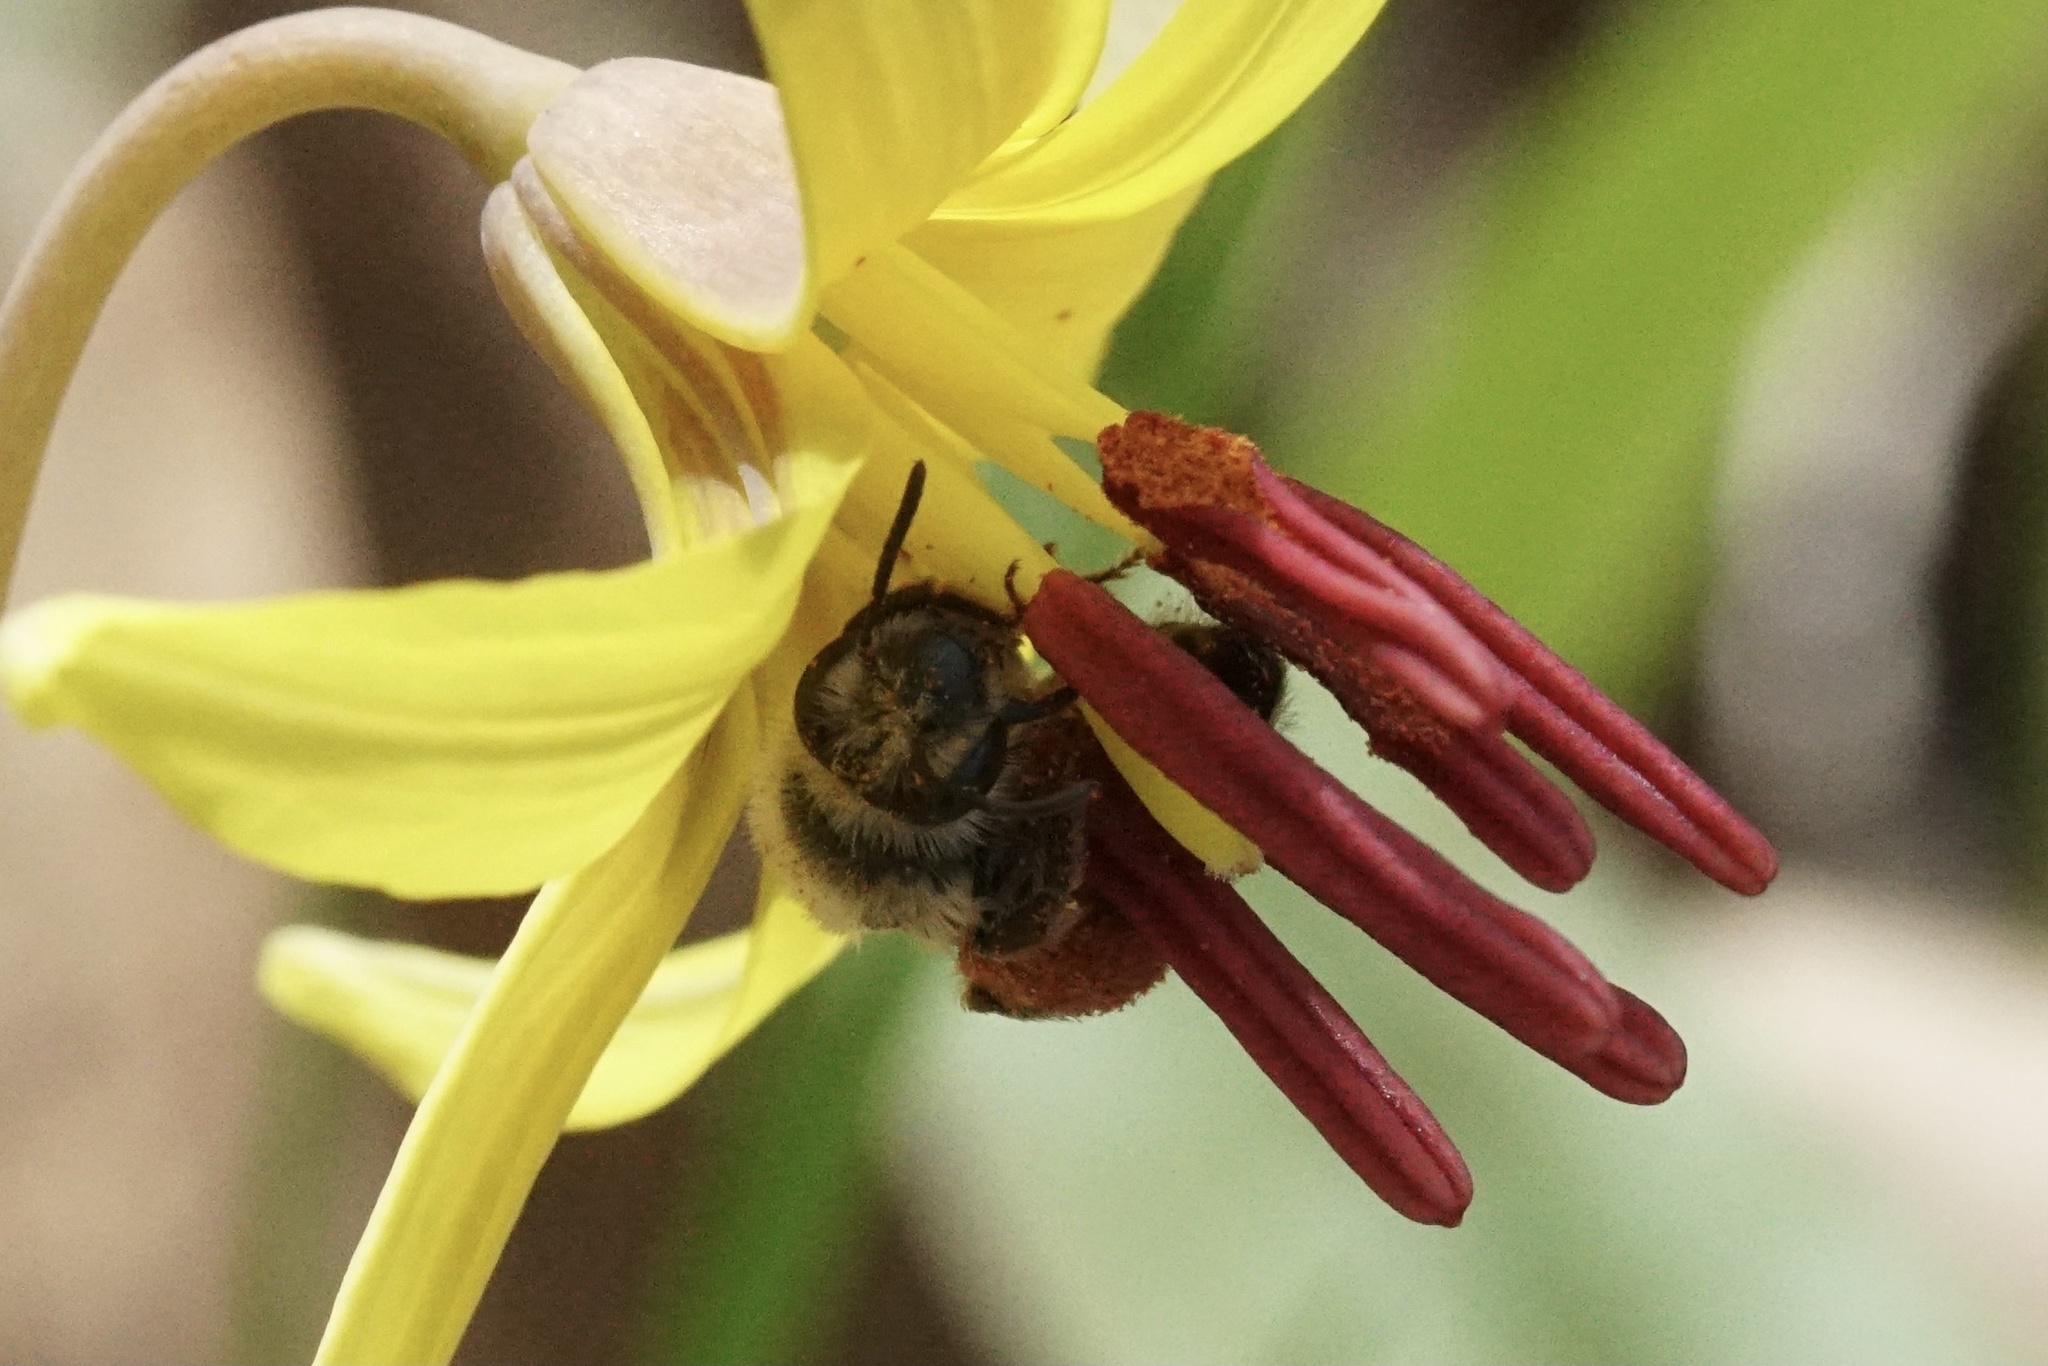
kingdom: Animalia
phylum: Arthropoda
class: Insecta
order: Hymenoptera
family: Andrenidae
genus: Andrena
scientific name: Andrena erythronii
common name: Trout-lily mining bee
